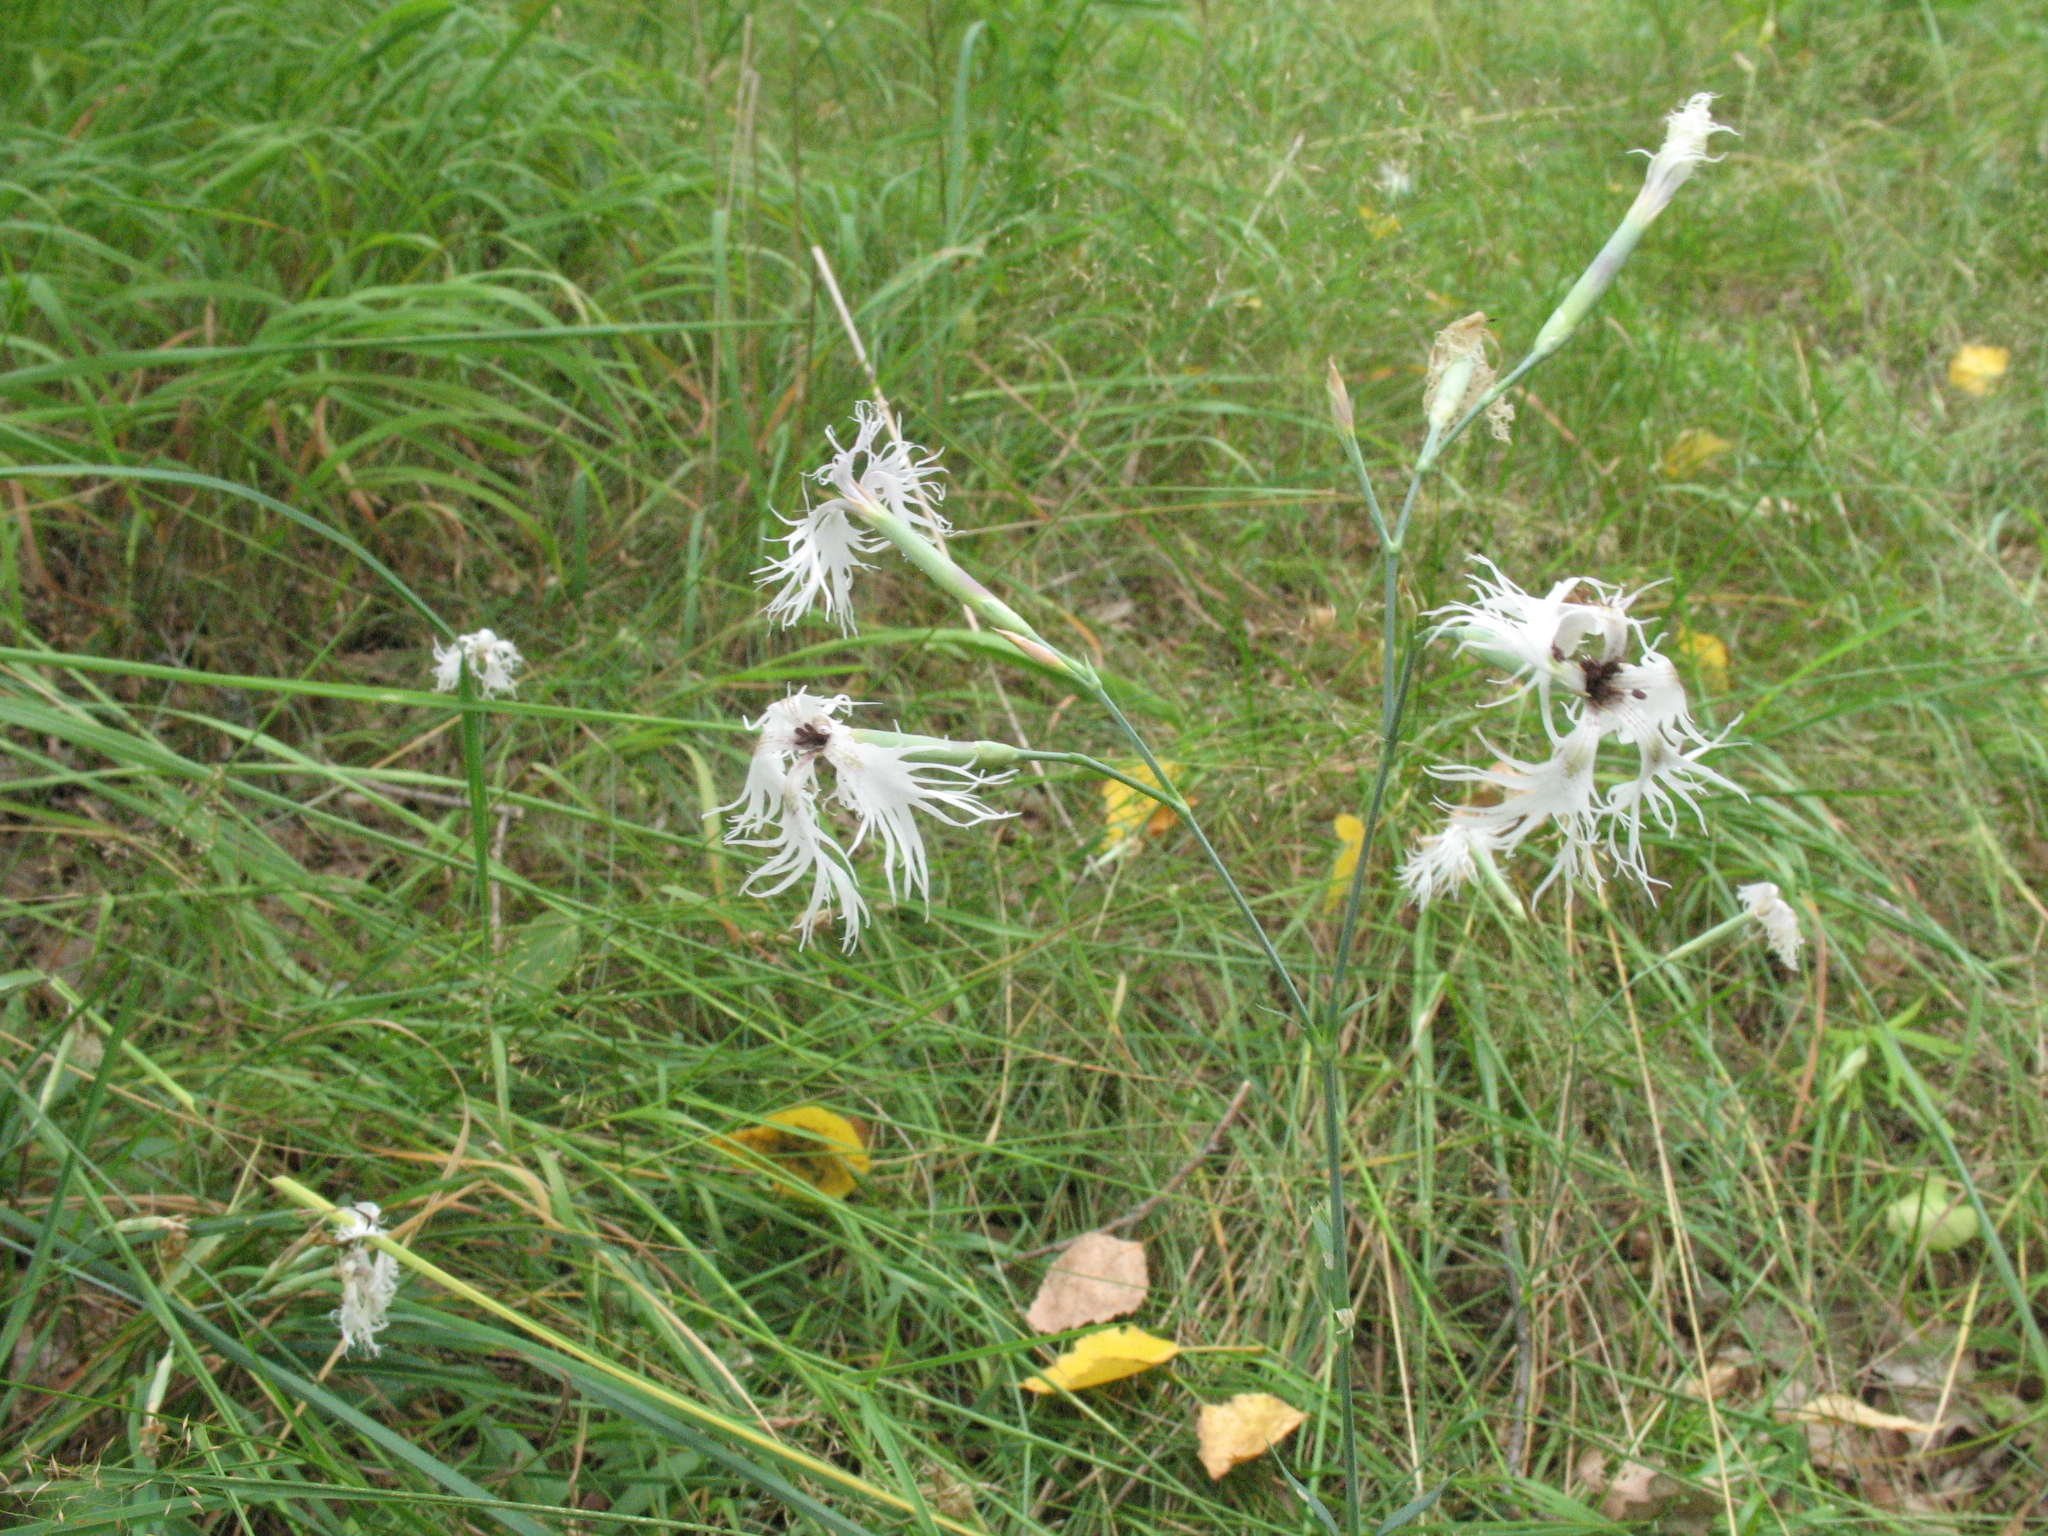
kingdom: Plantae
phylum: Tracheophyta
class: Magnoliopsida
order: Caryophyllales
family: Caryophyllaceae
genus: Dianthus
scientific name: Dianthus superbus
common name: Fringed pink
